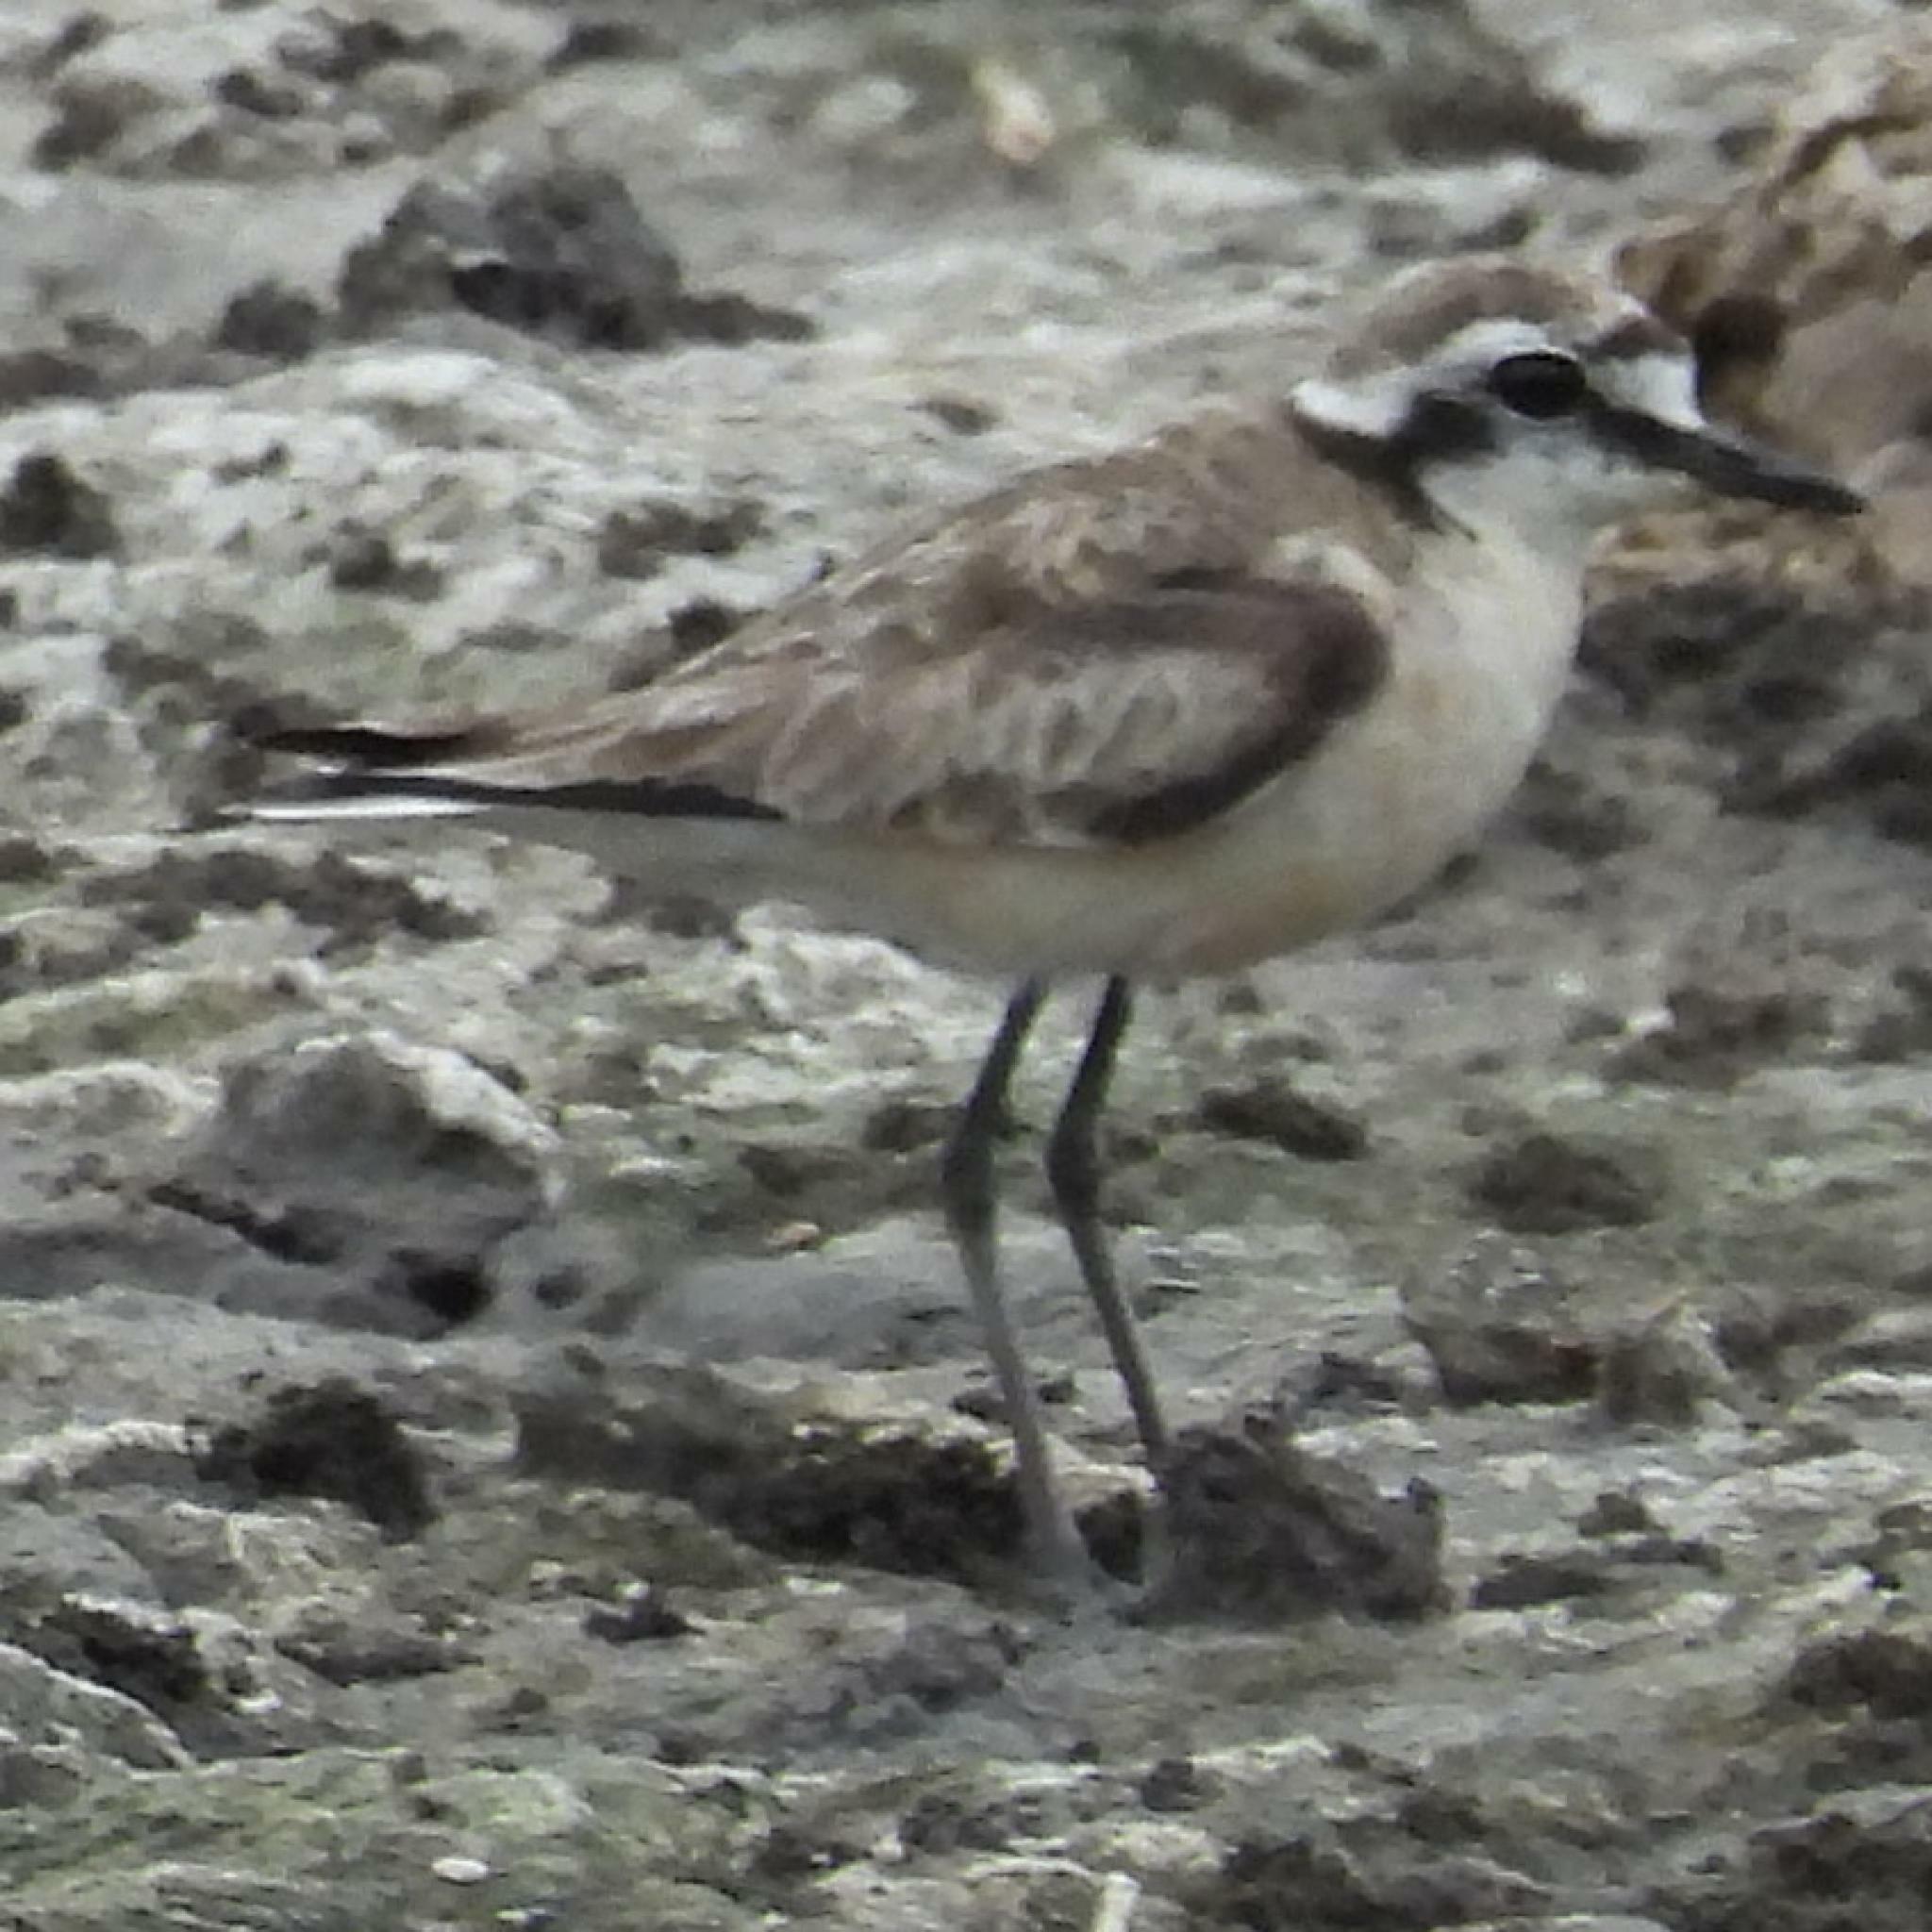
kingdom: Animalia
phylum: Chordata
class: Aves
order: Charadriiformes
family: Charadriidae
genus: Anarhynchus
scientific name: Anarhynchus
